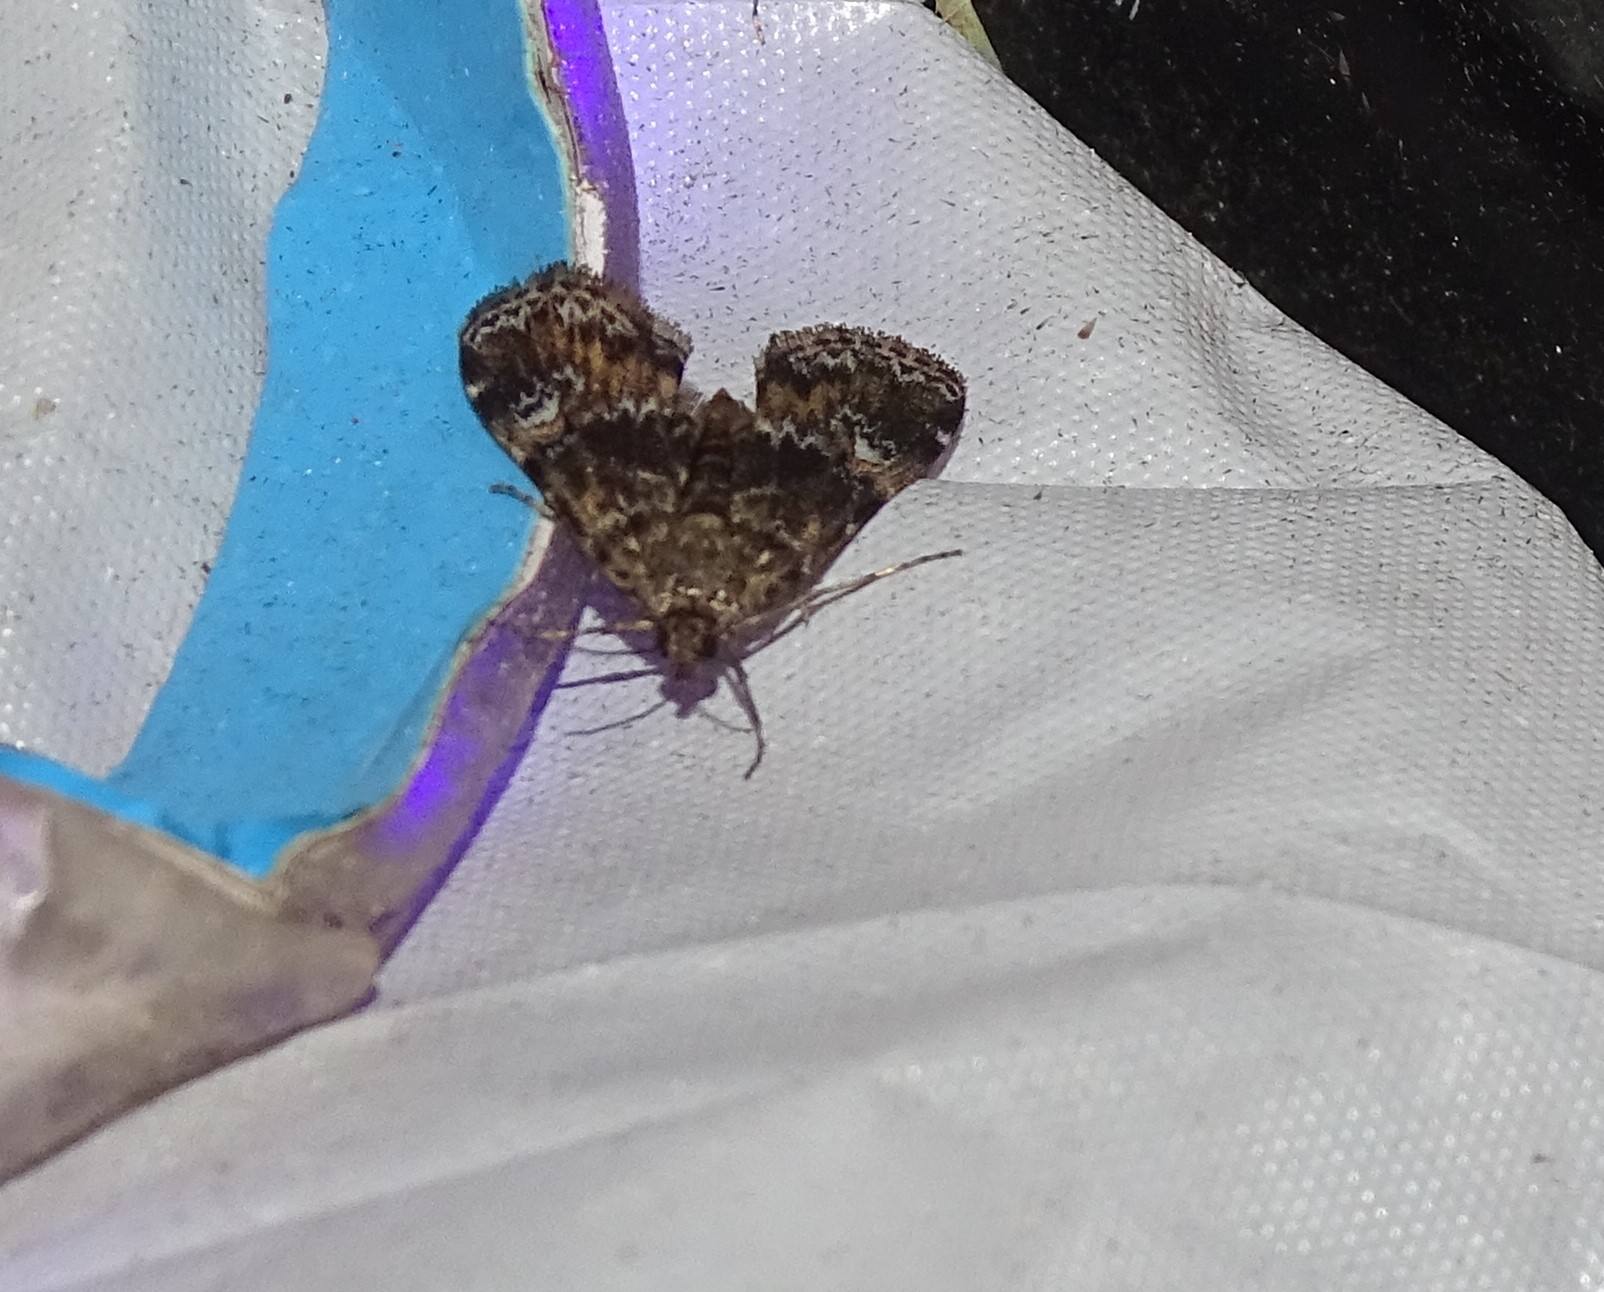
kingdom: Animalia
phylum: Arthropoda
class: Insecta
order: Lepidoptera
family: Crambidae
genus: Elophila
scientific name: Elophila obliteralis
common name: Waterlily leafcutter moth
